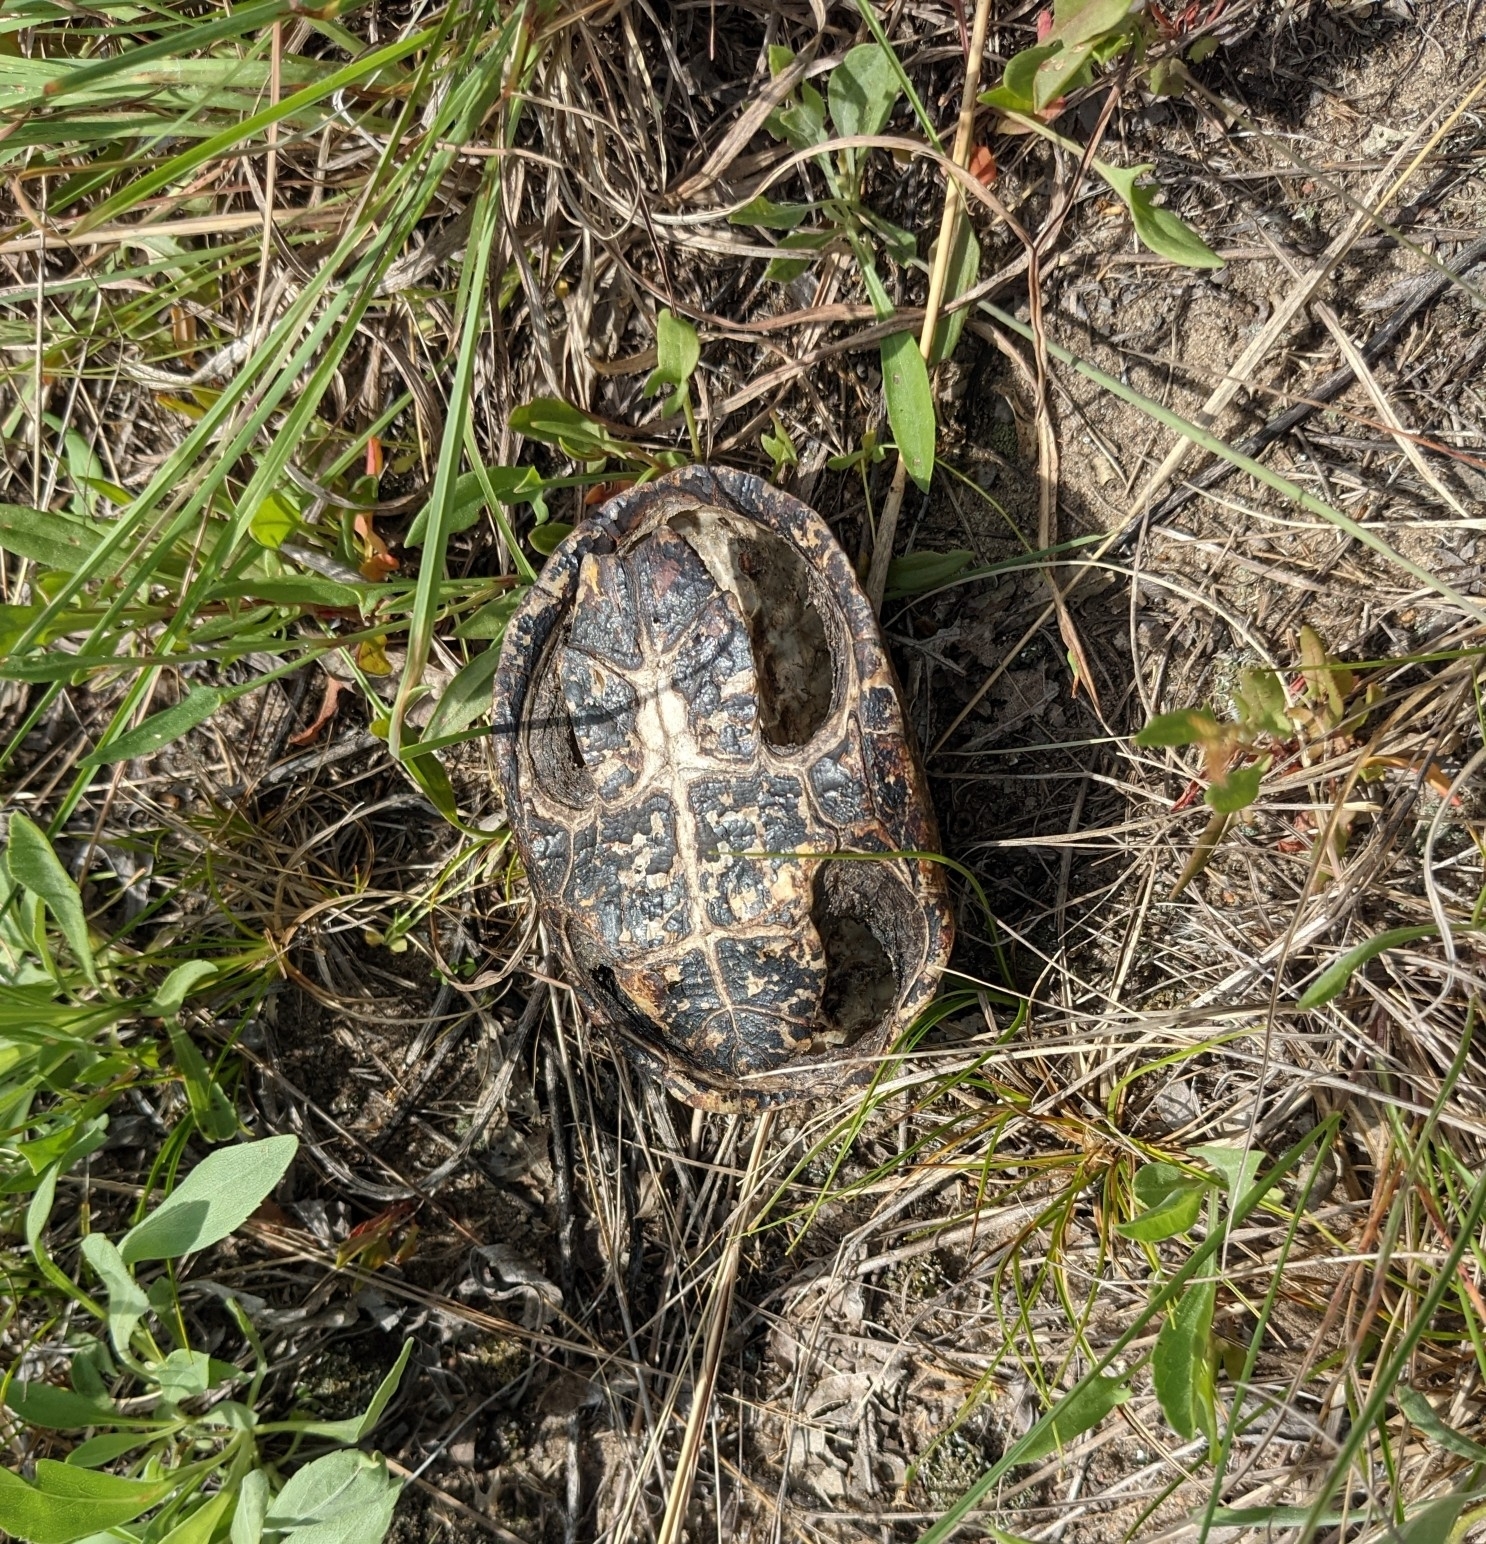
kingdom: Animalia
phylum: Chordata
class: Testudines
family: Kinosternidae
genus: Sternotherus
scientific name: Sternotherus odoratus
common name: Common musk turtle
